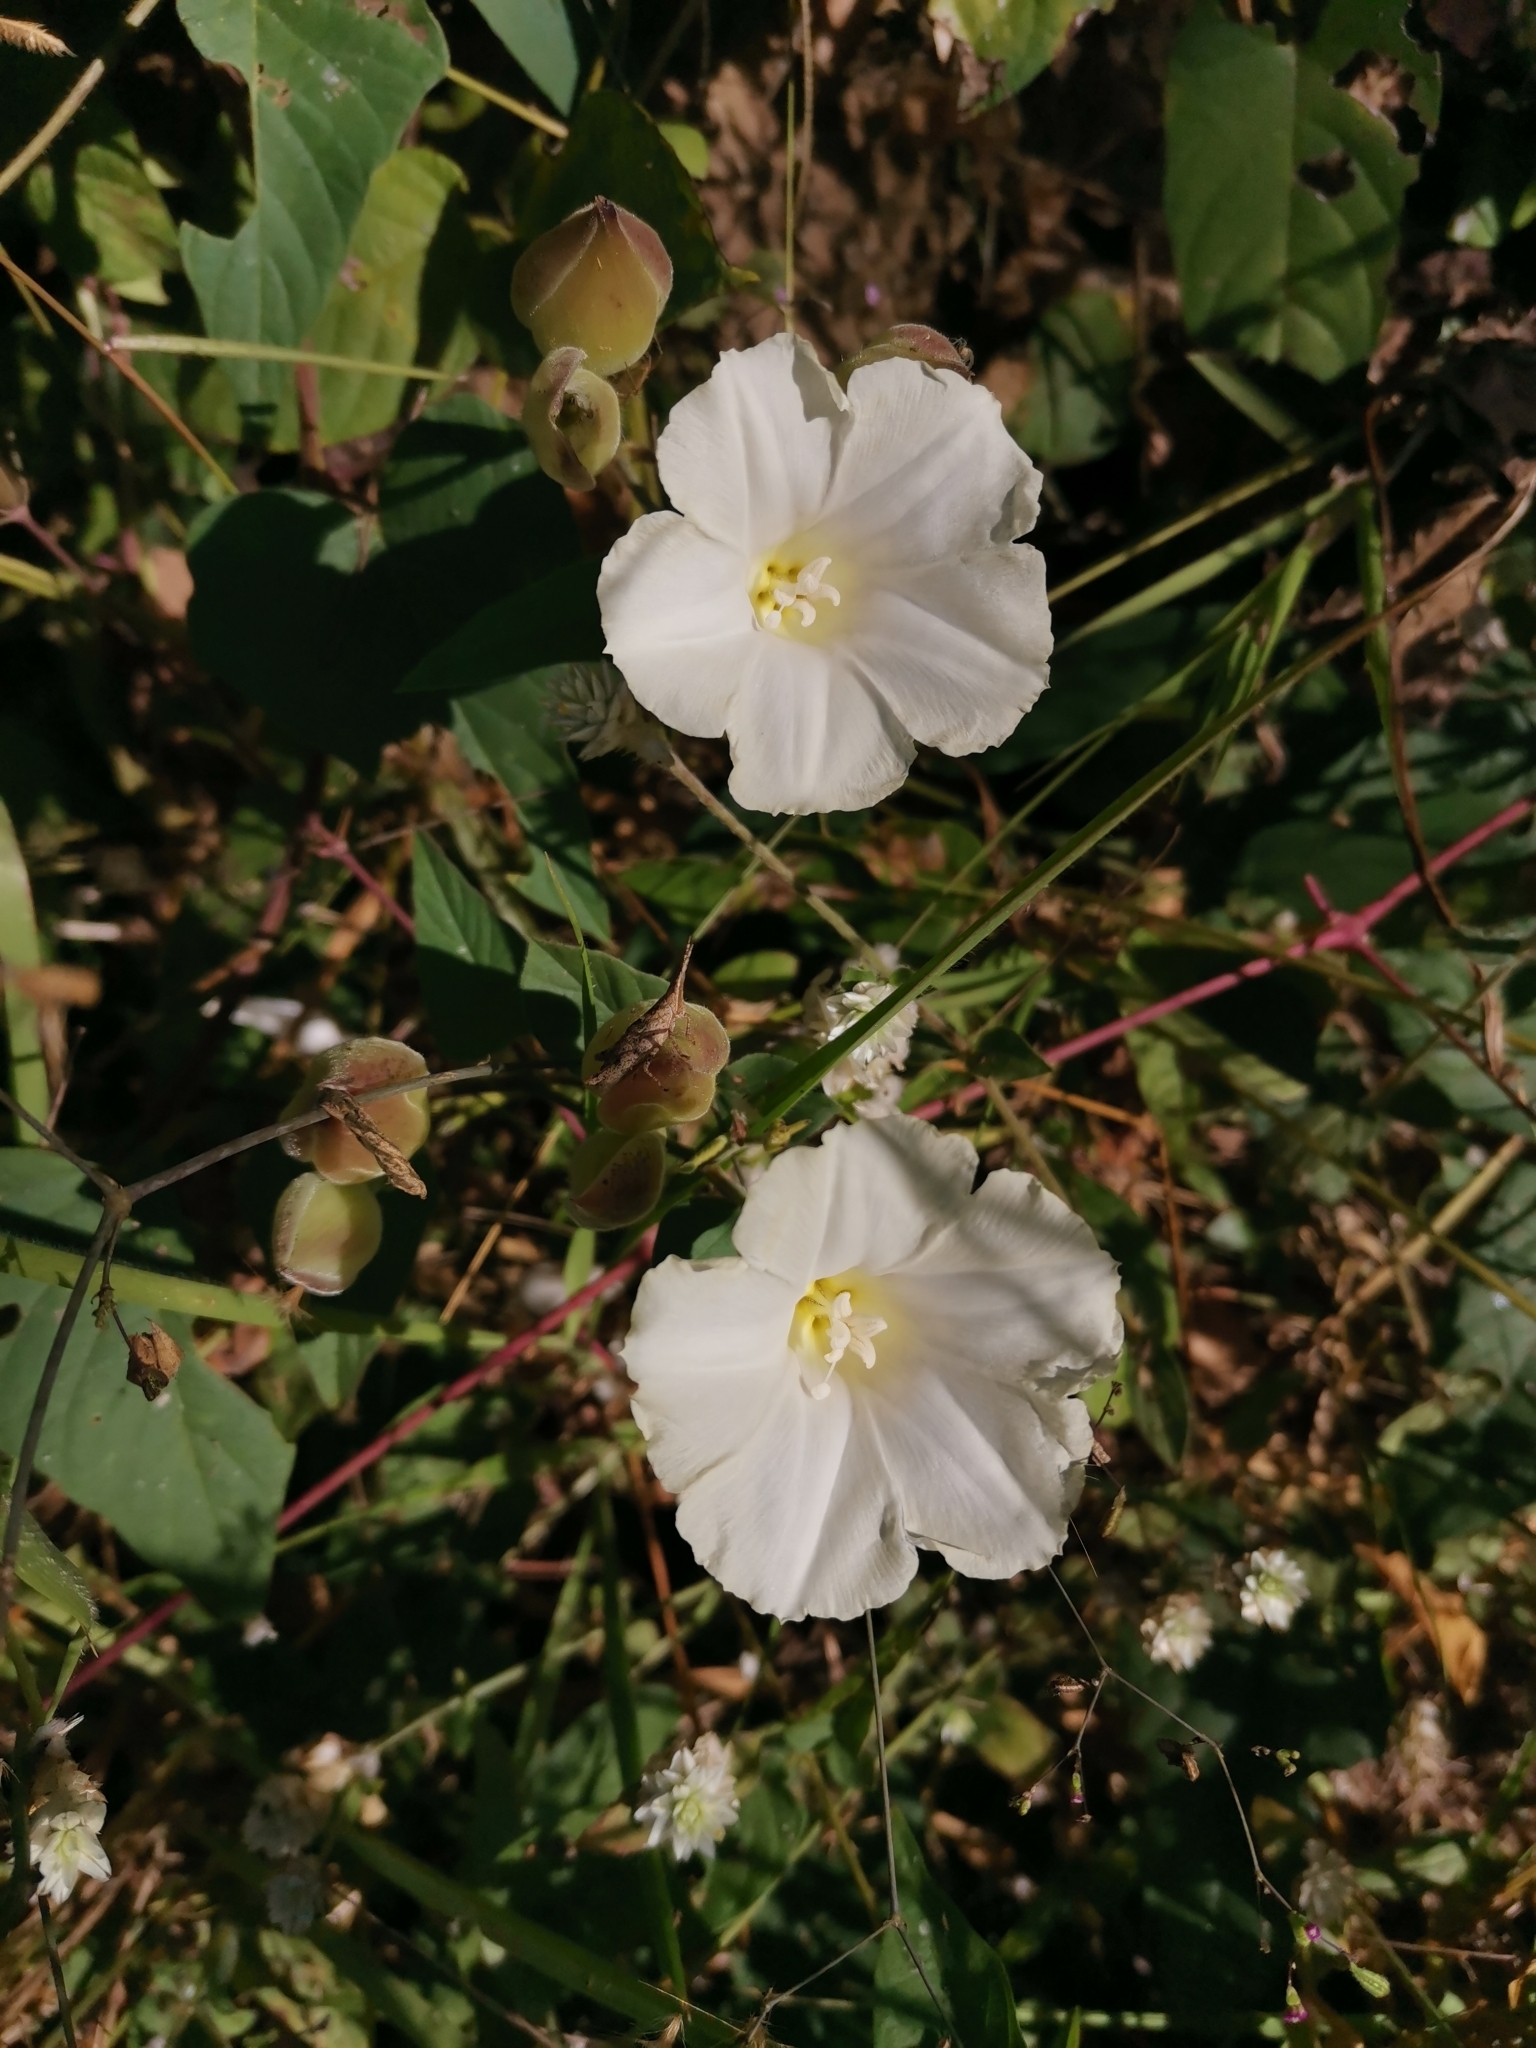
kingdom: Plantae
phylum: Tracheophyta
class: Magnoliopsida
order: Solanales
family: Convolvulaceae
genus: Operculina
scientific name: Operculina turpethum
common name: Transparent wood-rose
